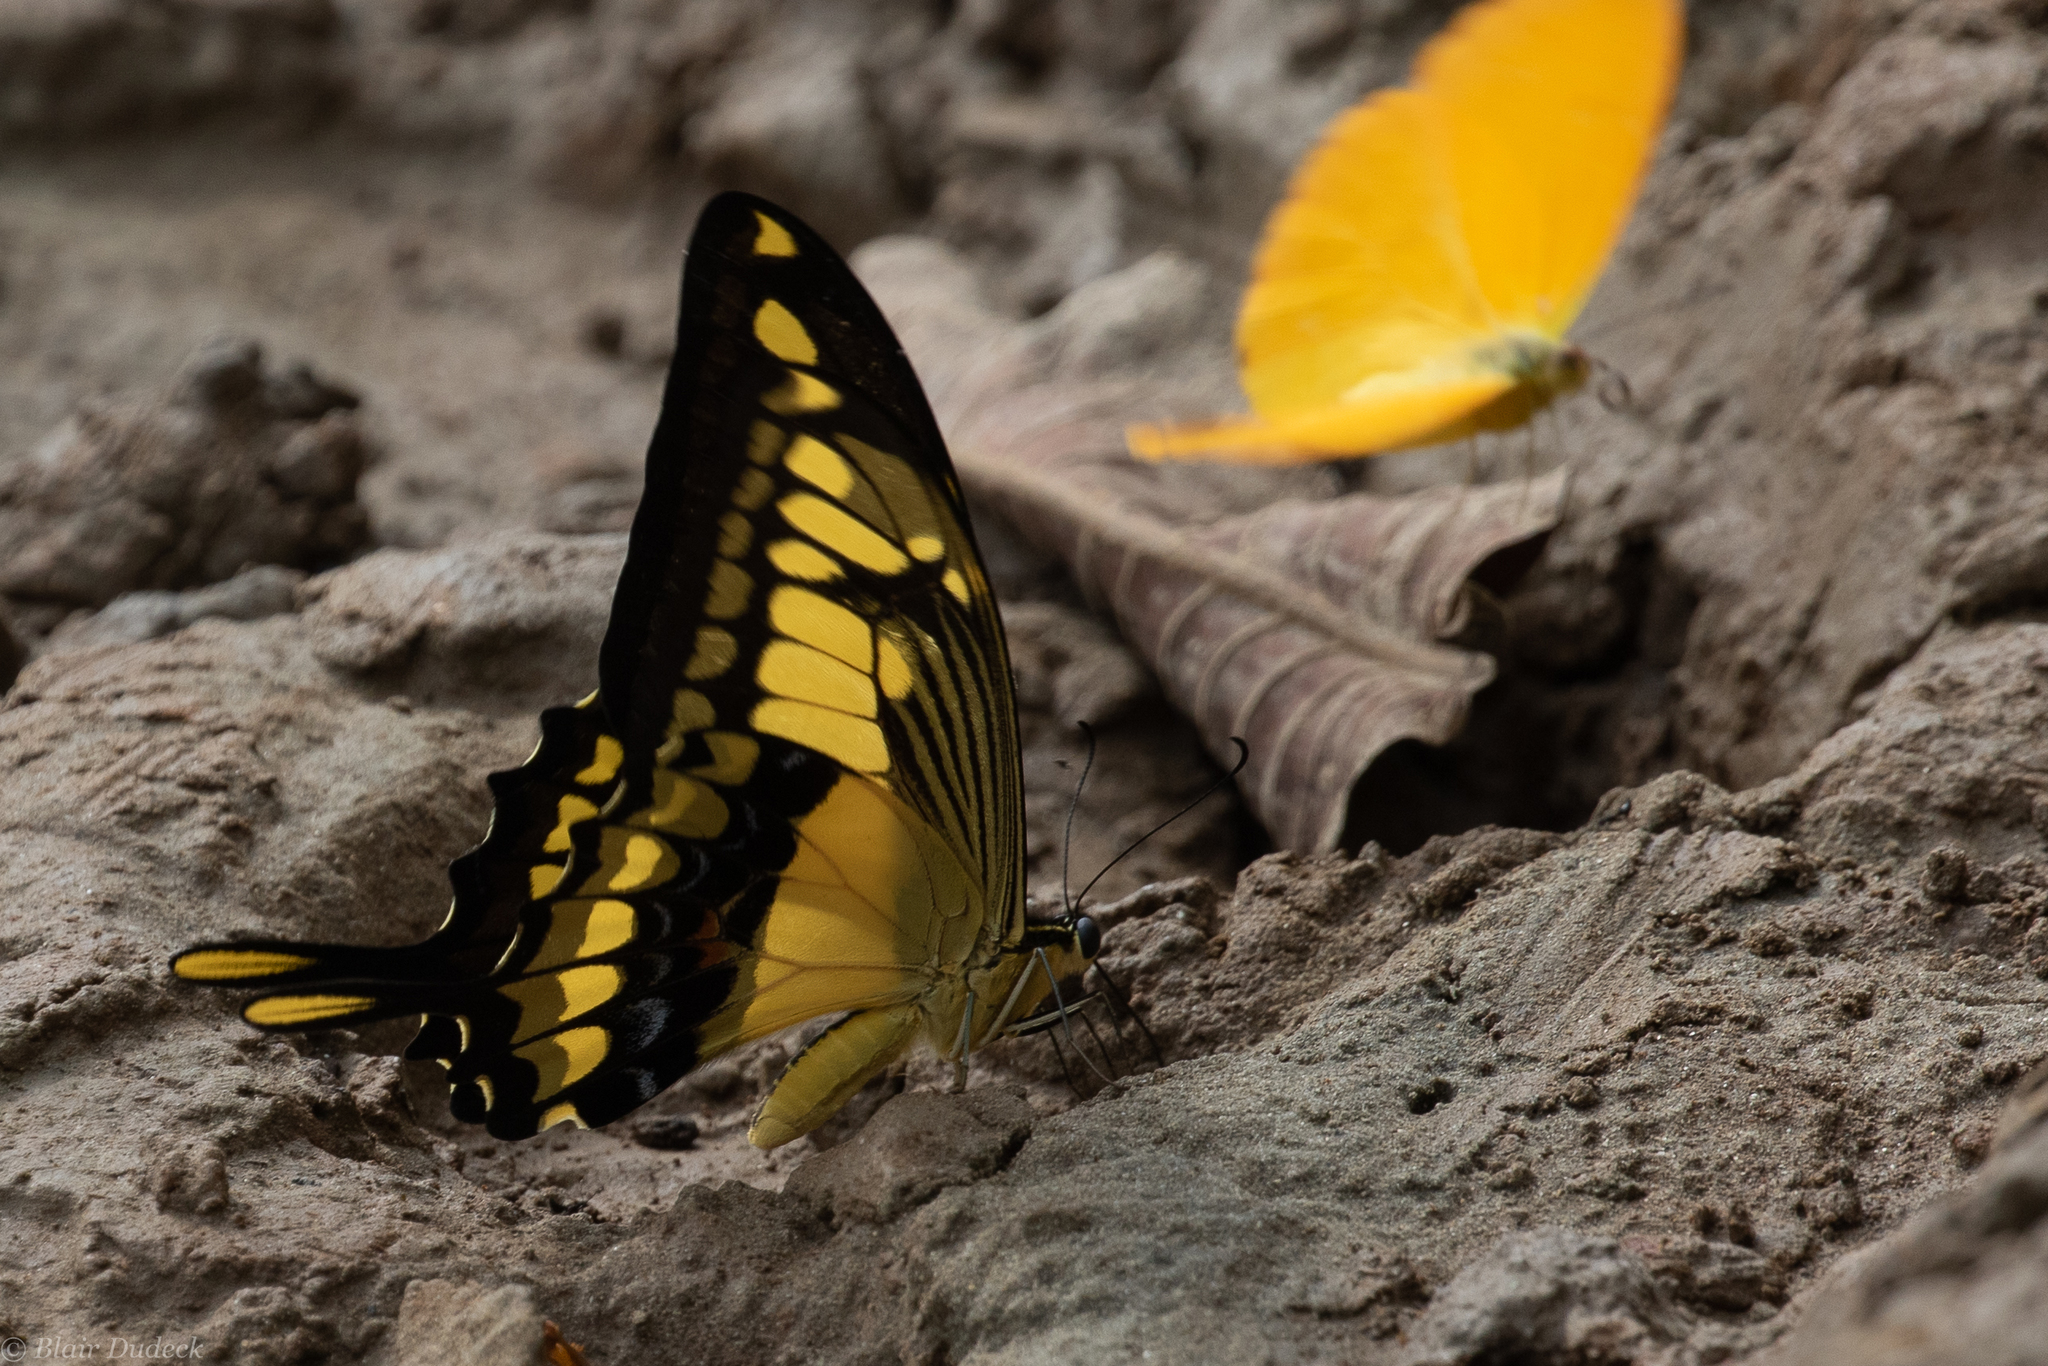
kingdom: Animalia
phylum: Arthropoda
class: Insecta
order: Lepidoptera
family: Papilionidae
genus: Papilio
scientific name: Papilio thoas
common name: King swallowtail
